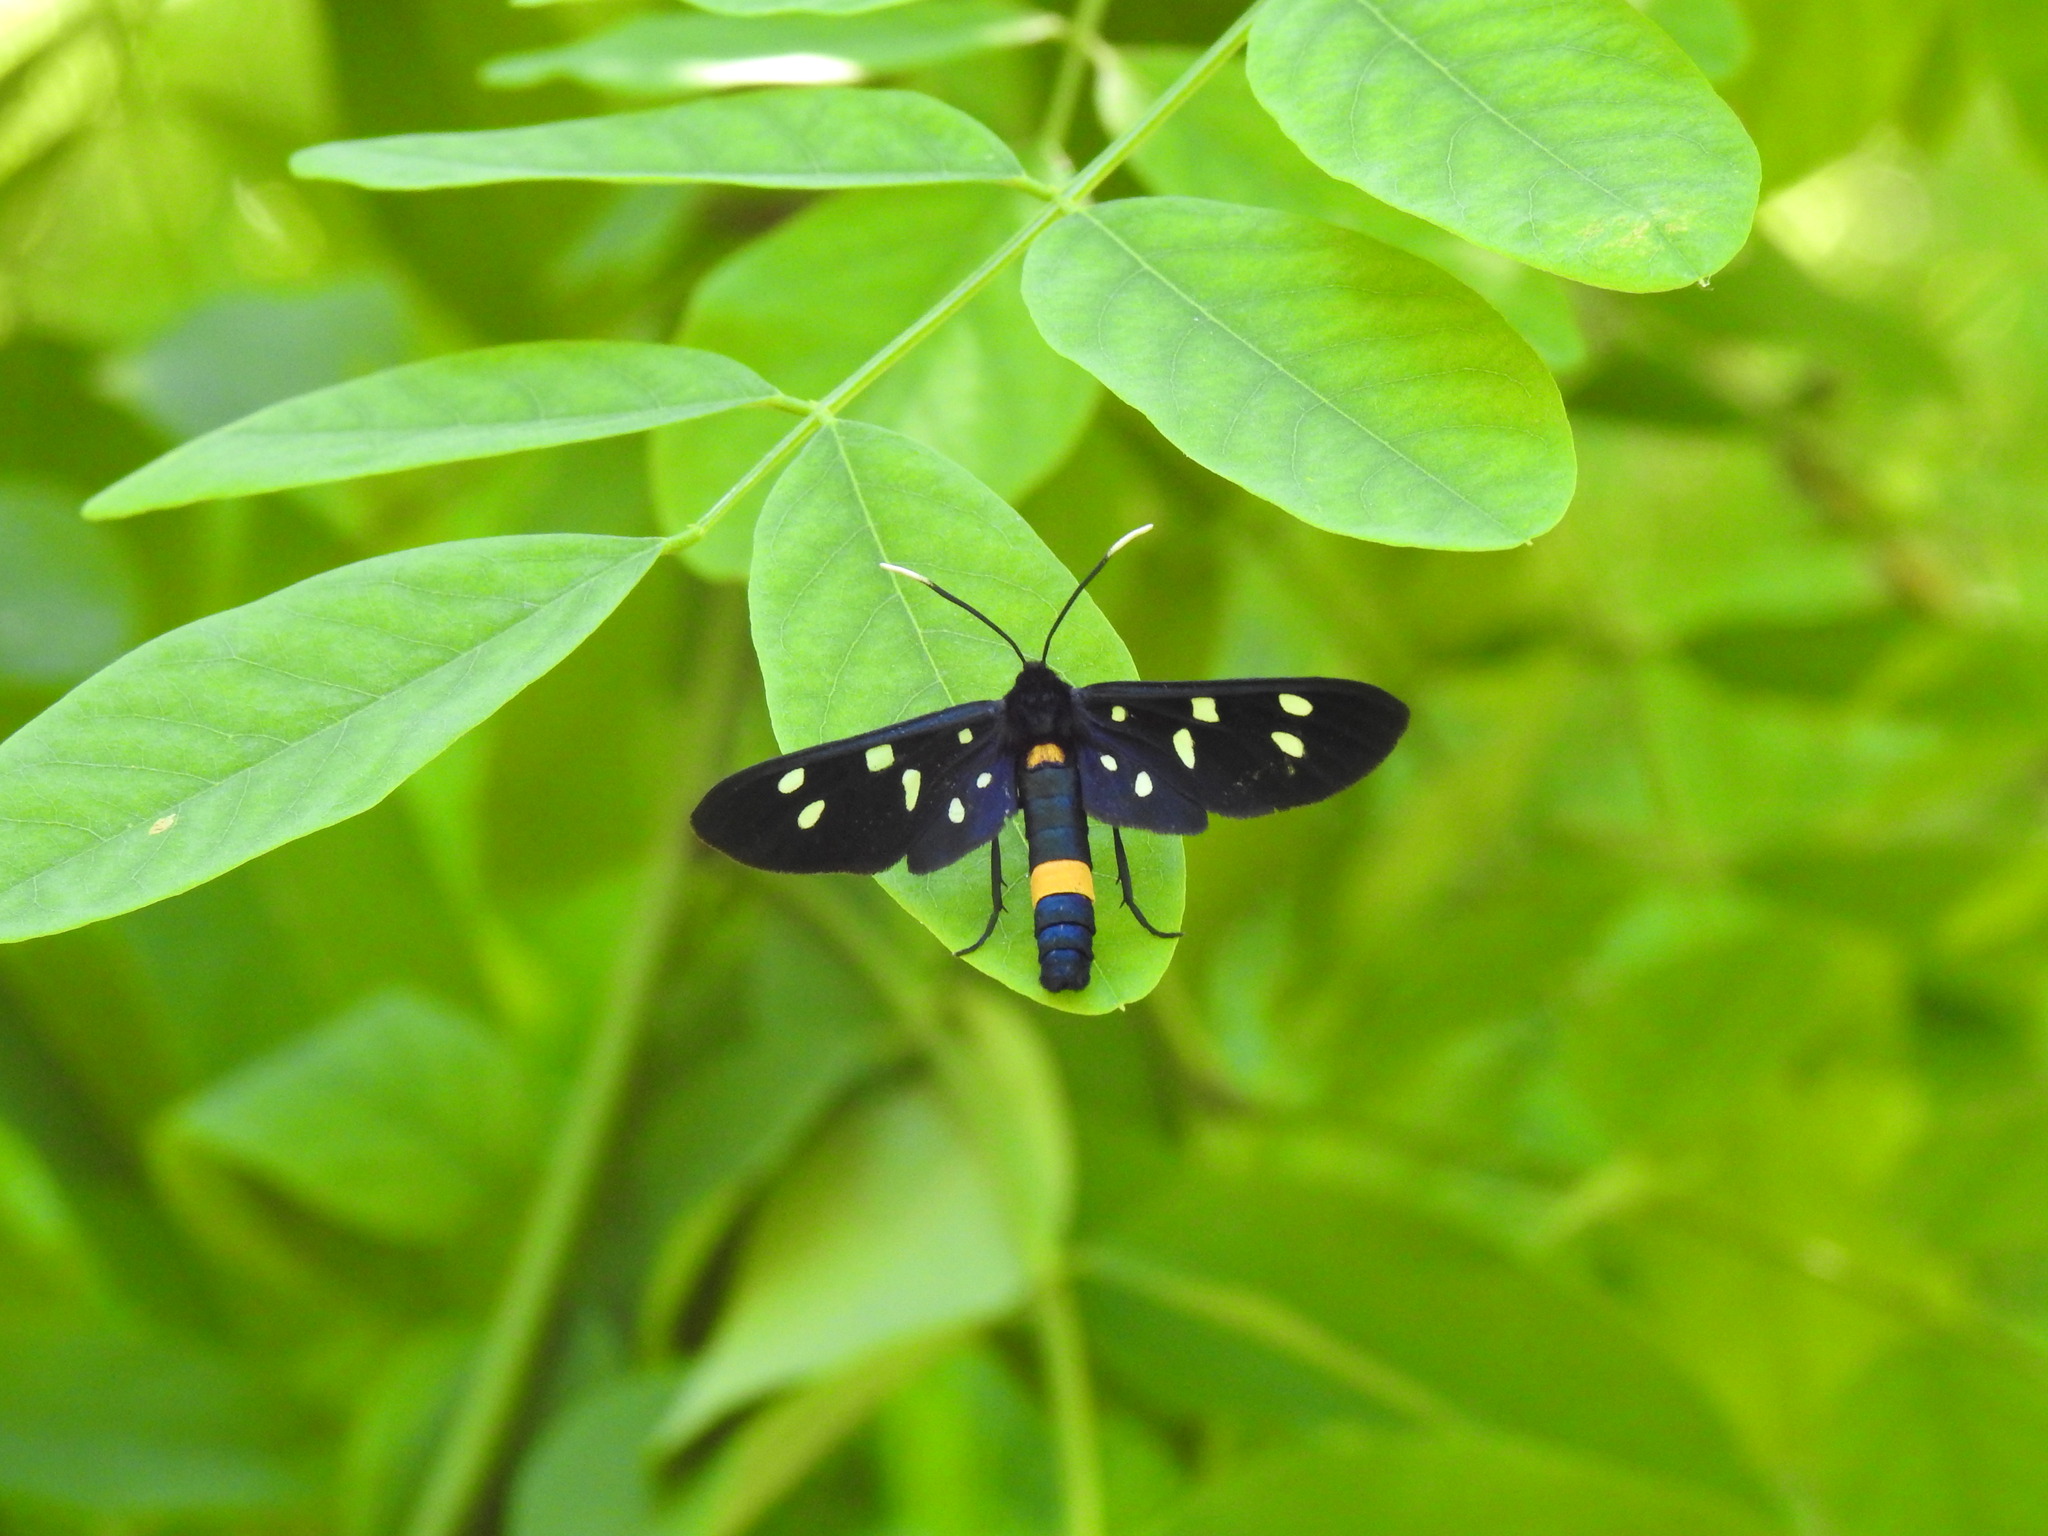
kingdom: Animalia
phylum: Arthropoda
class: Insecta
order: Lepidoptera
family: Erebidae
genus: Amata
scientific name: Amata phegea
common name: Nine-spotted
